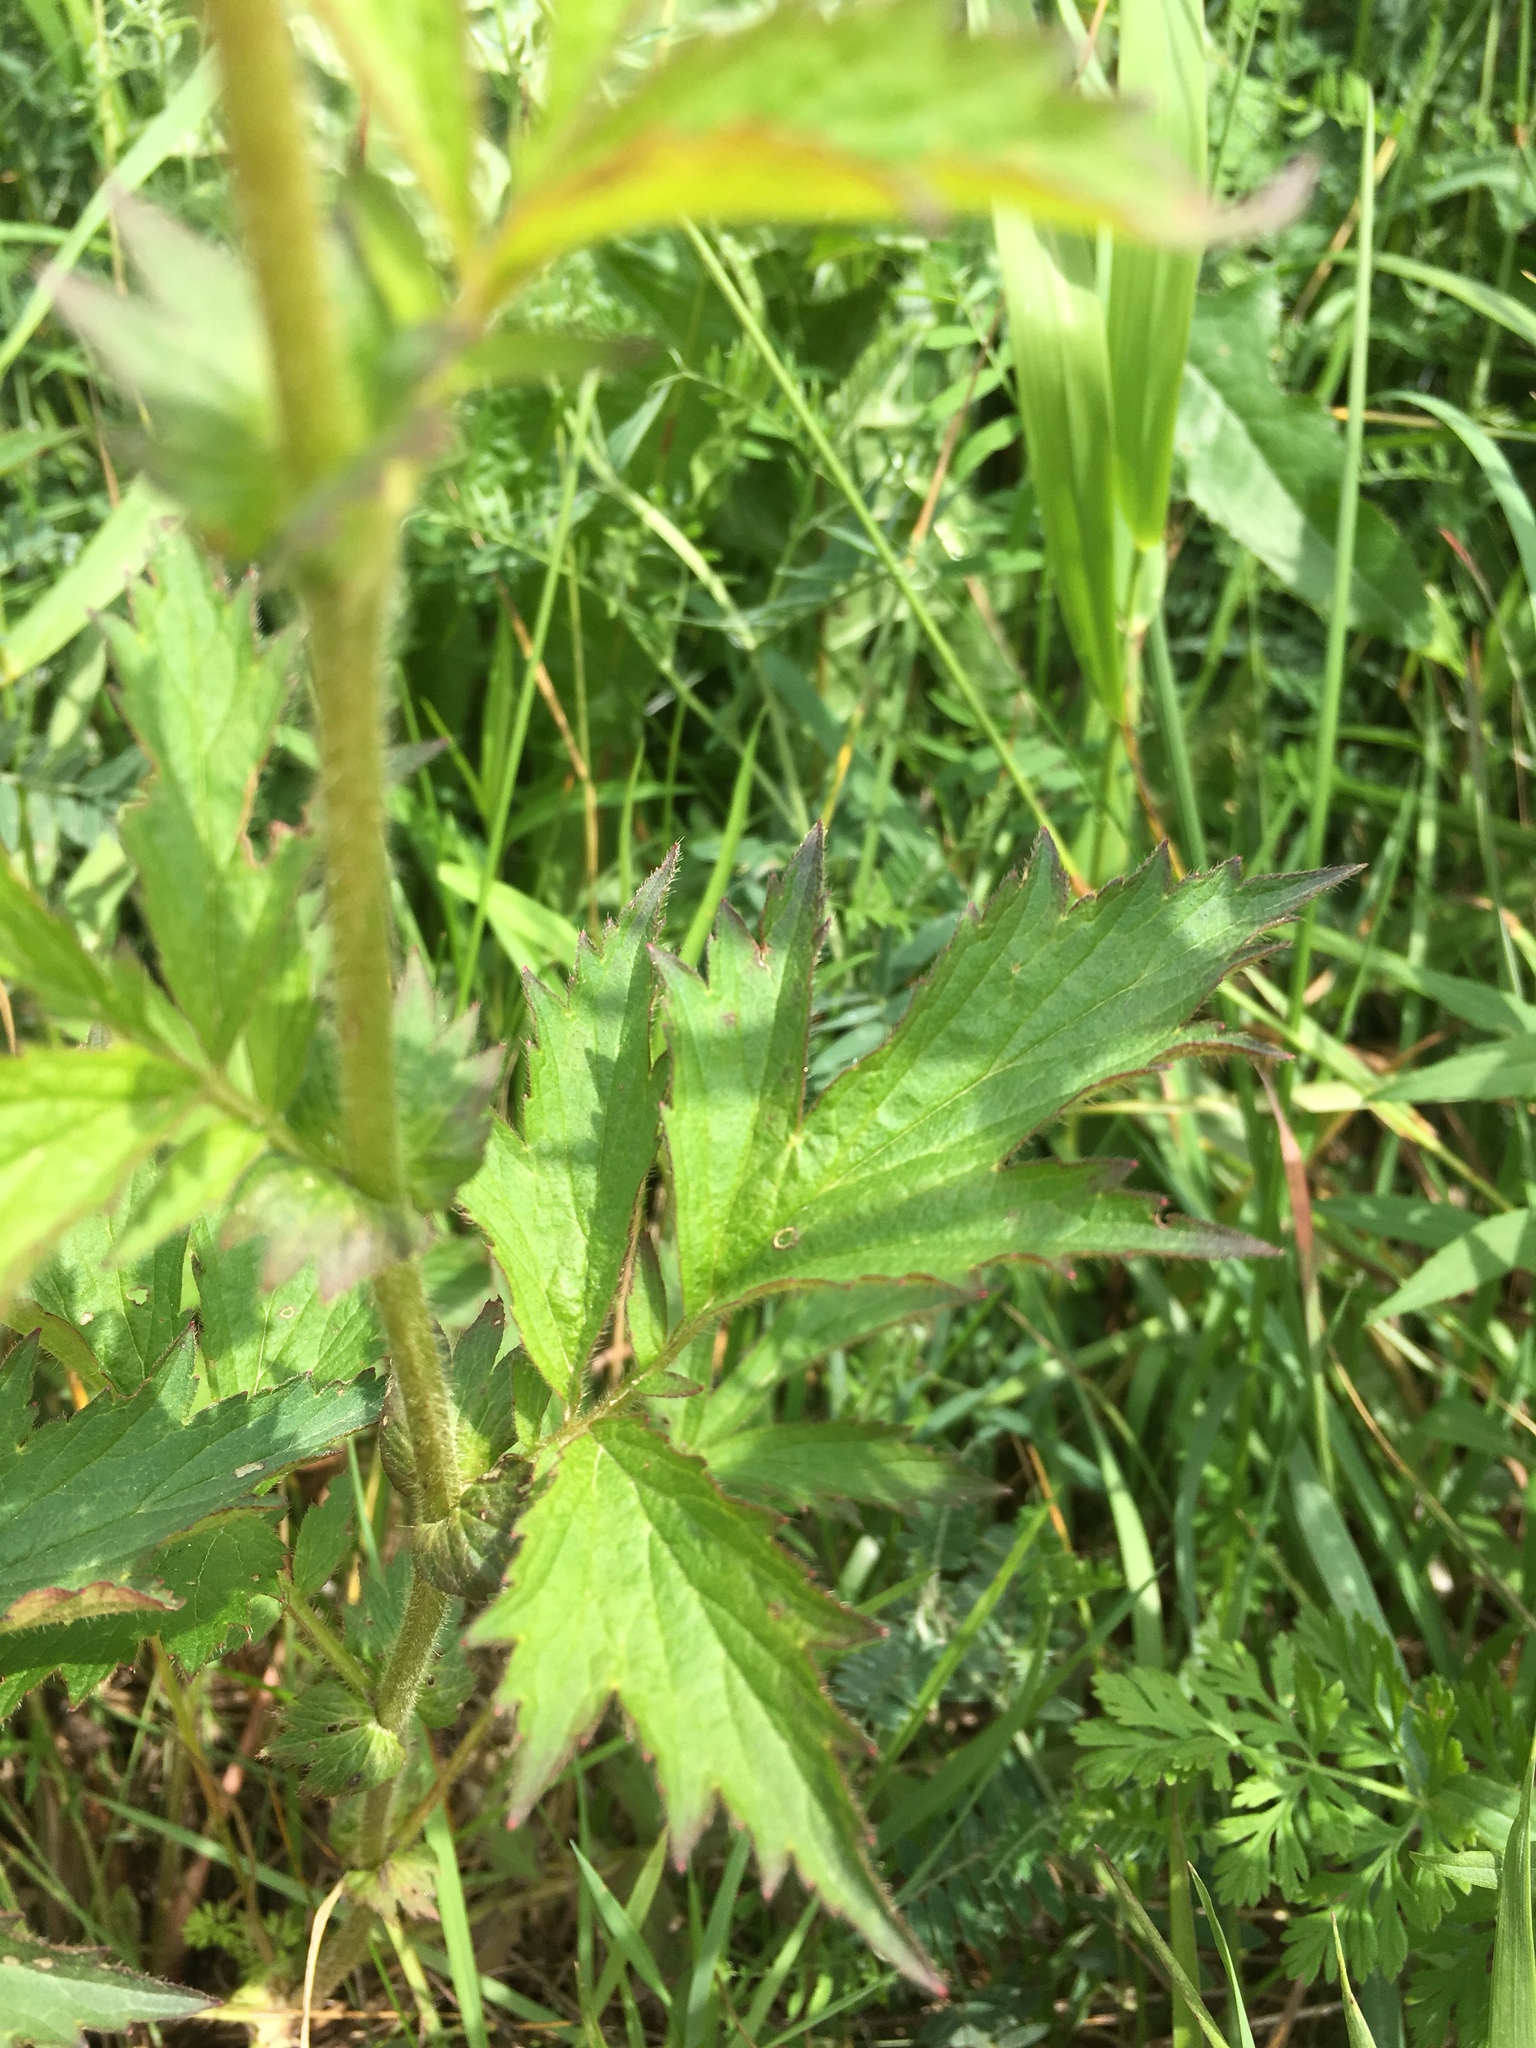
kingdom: Plantae
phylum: Tracheophyta
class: Magnoliopsida
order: Rosales
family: Rosaceae
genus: Geum
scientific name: Geum aleppicum
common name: Yellow avens
